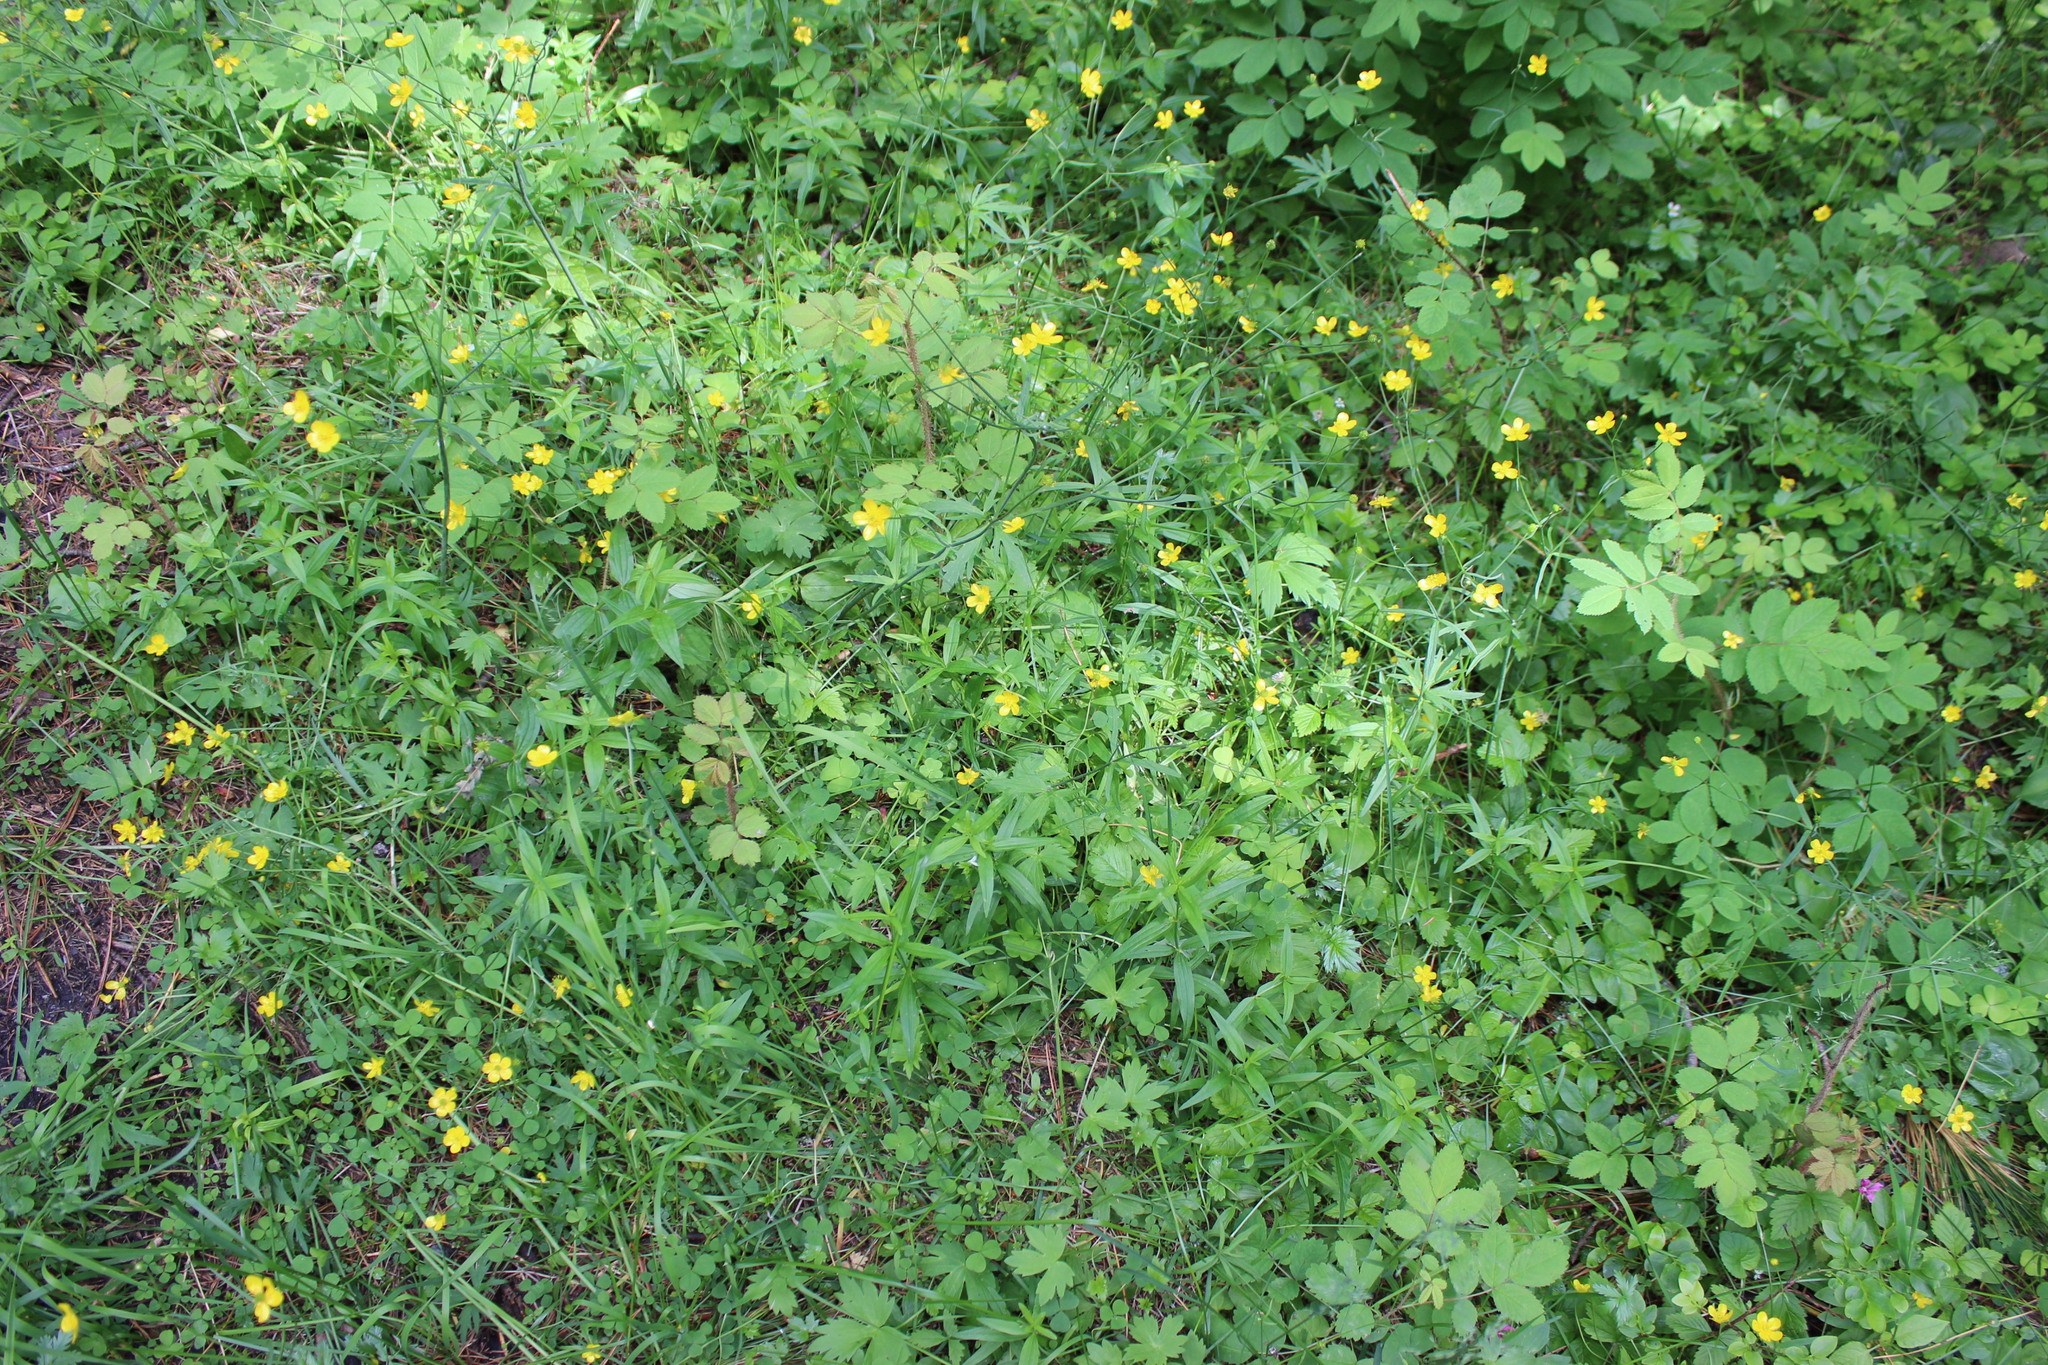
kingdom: Plantae
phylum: Tracheophyta
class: Magnoliopsida
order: Ranunculales
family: Ranunculaceae
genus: Ranunculus
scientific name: Ranunculus propinquus
